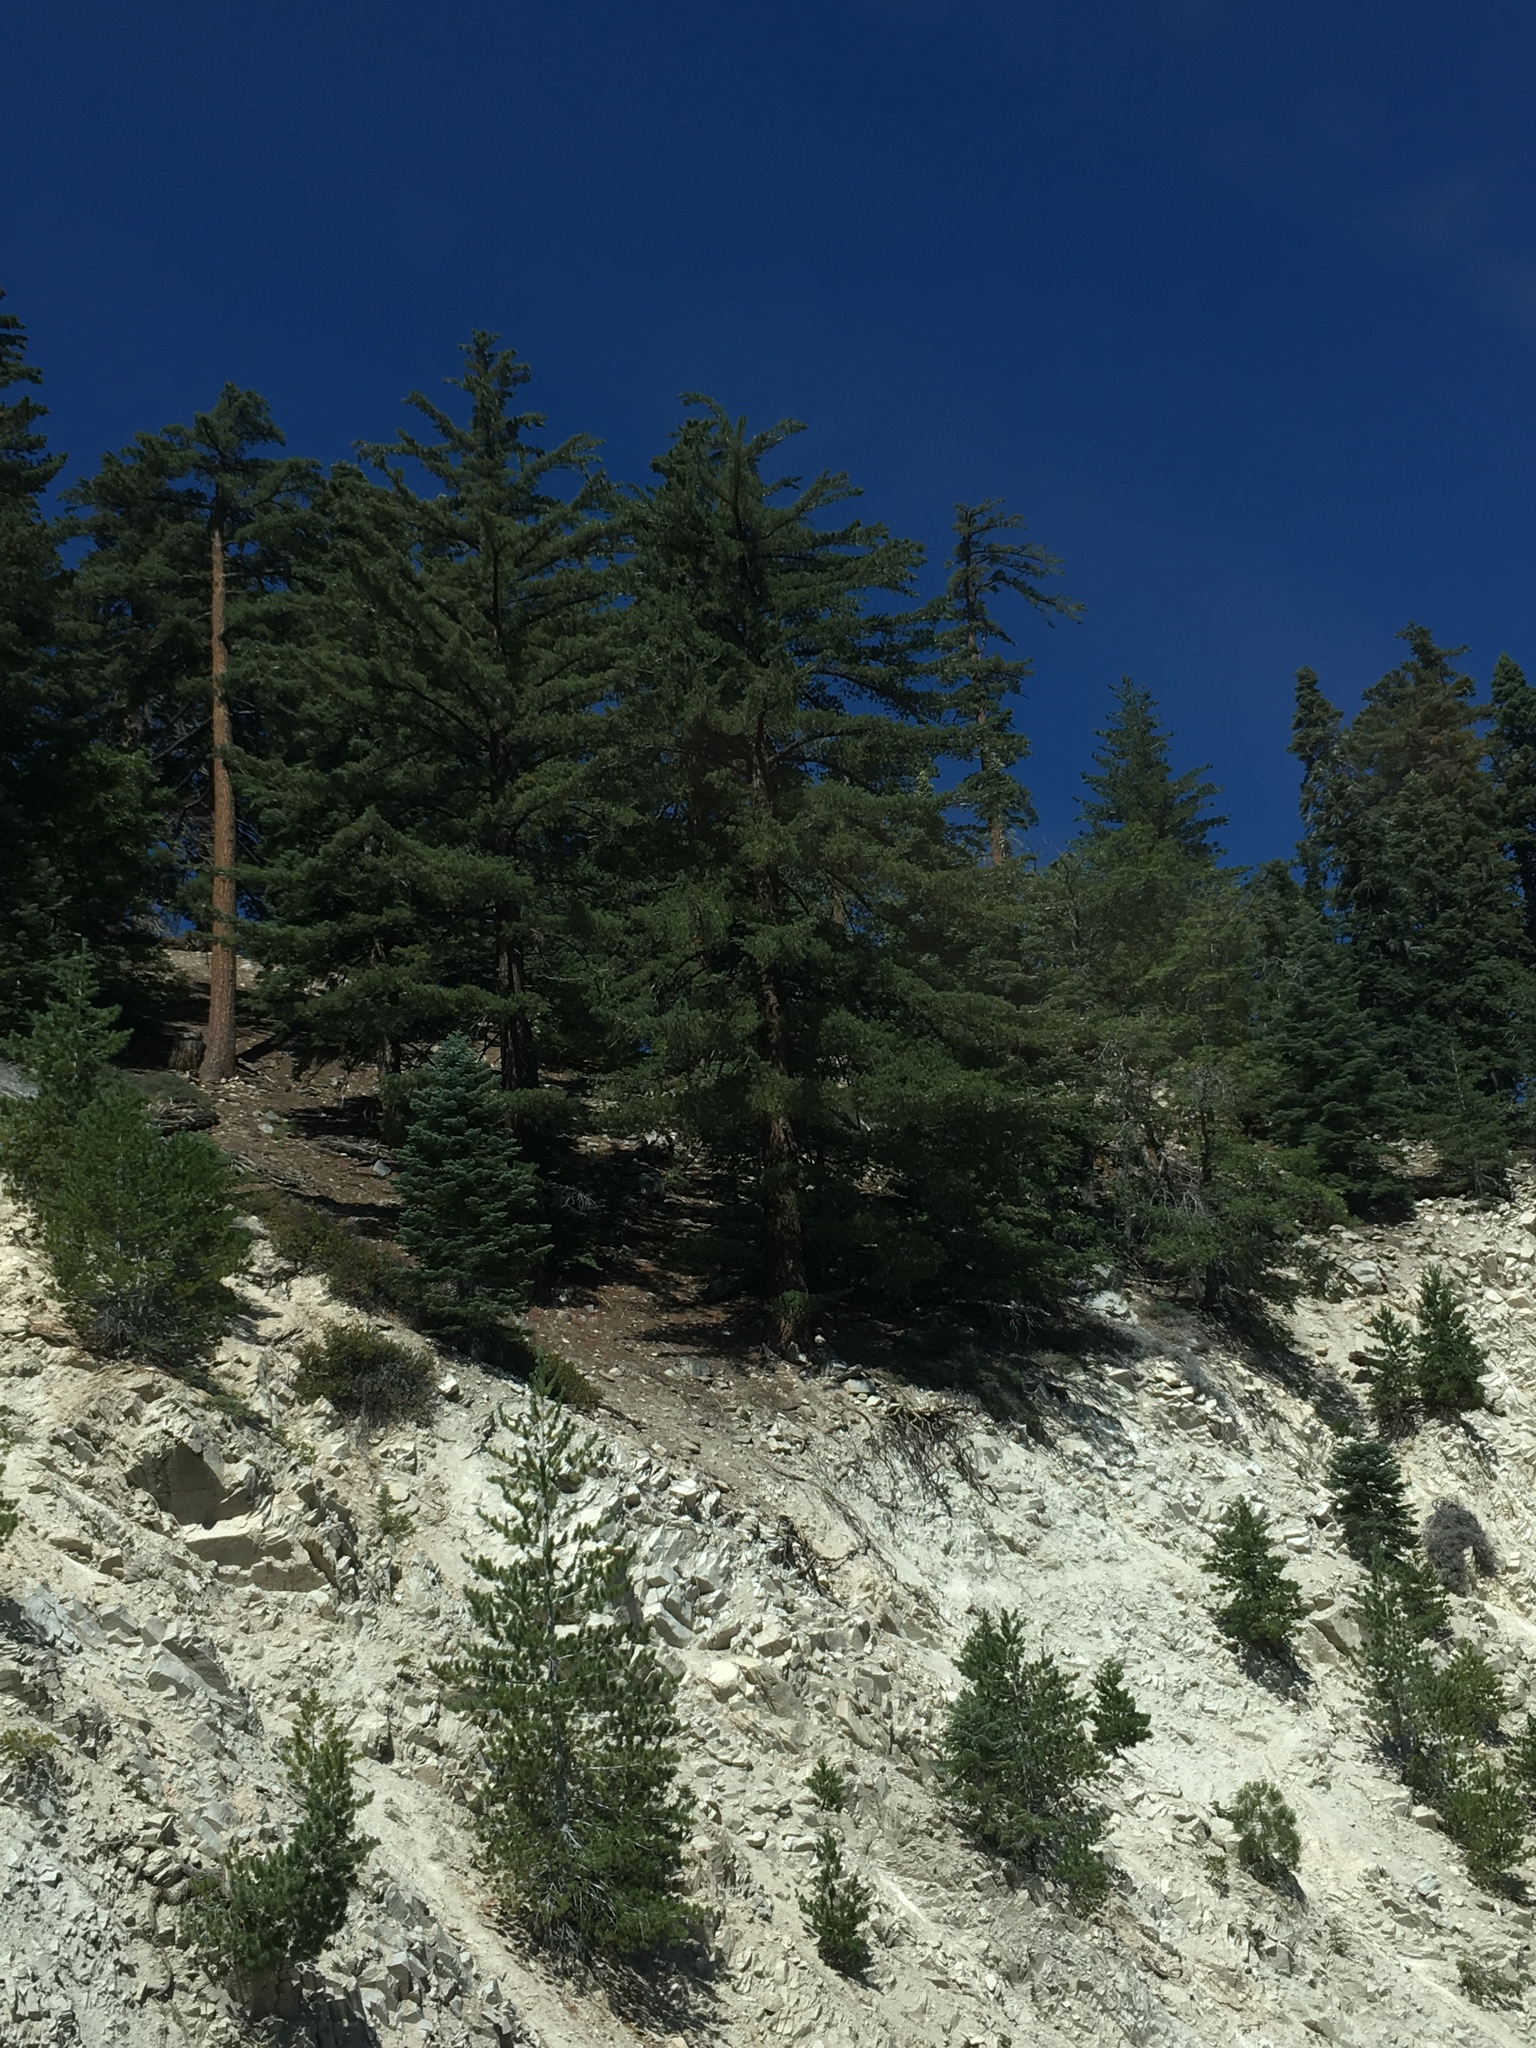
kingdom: Plantae
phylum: Tracheophyta
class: Pinopsida
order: Pinales
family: Pinaceae
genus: Pinus
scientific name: Pinus lambertiana
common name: Sugar pine
